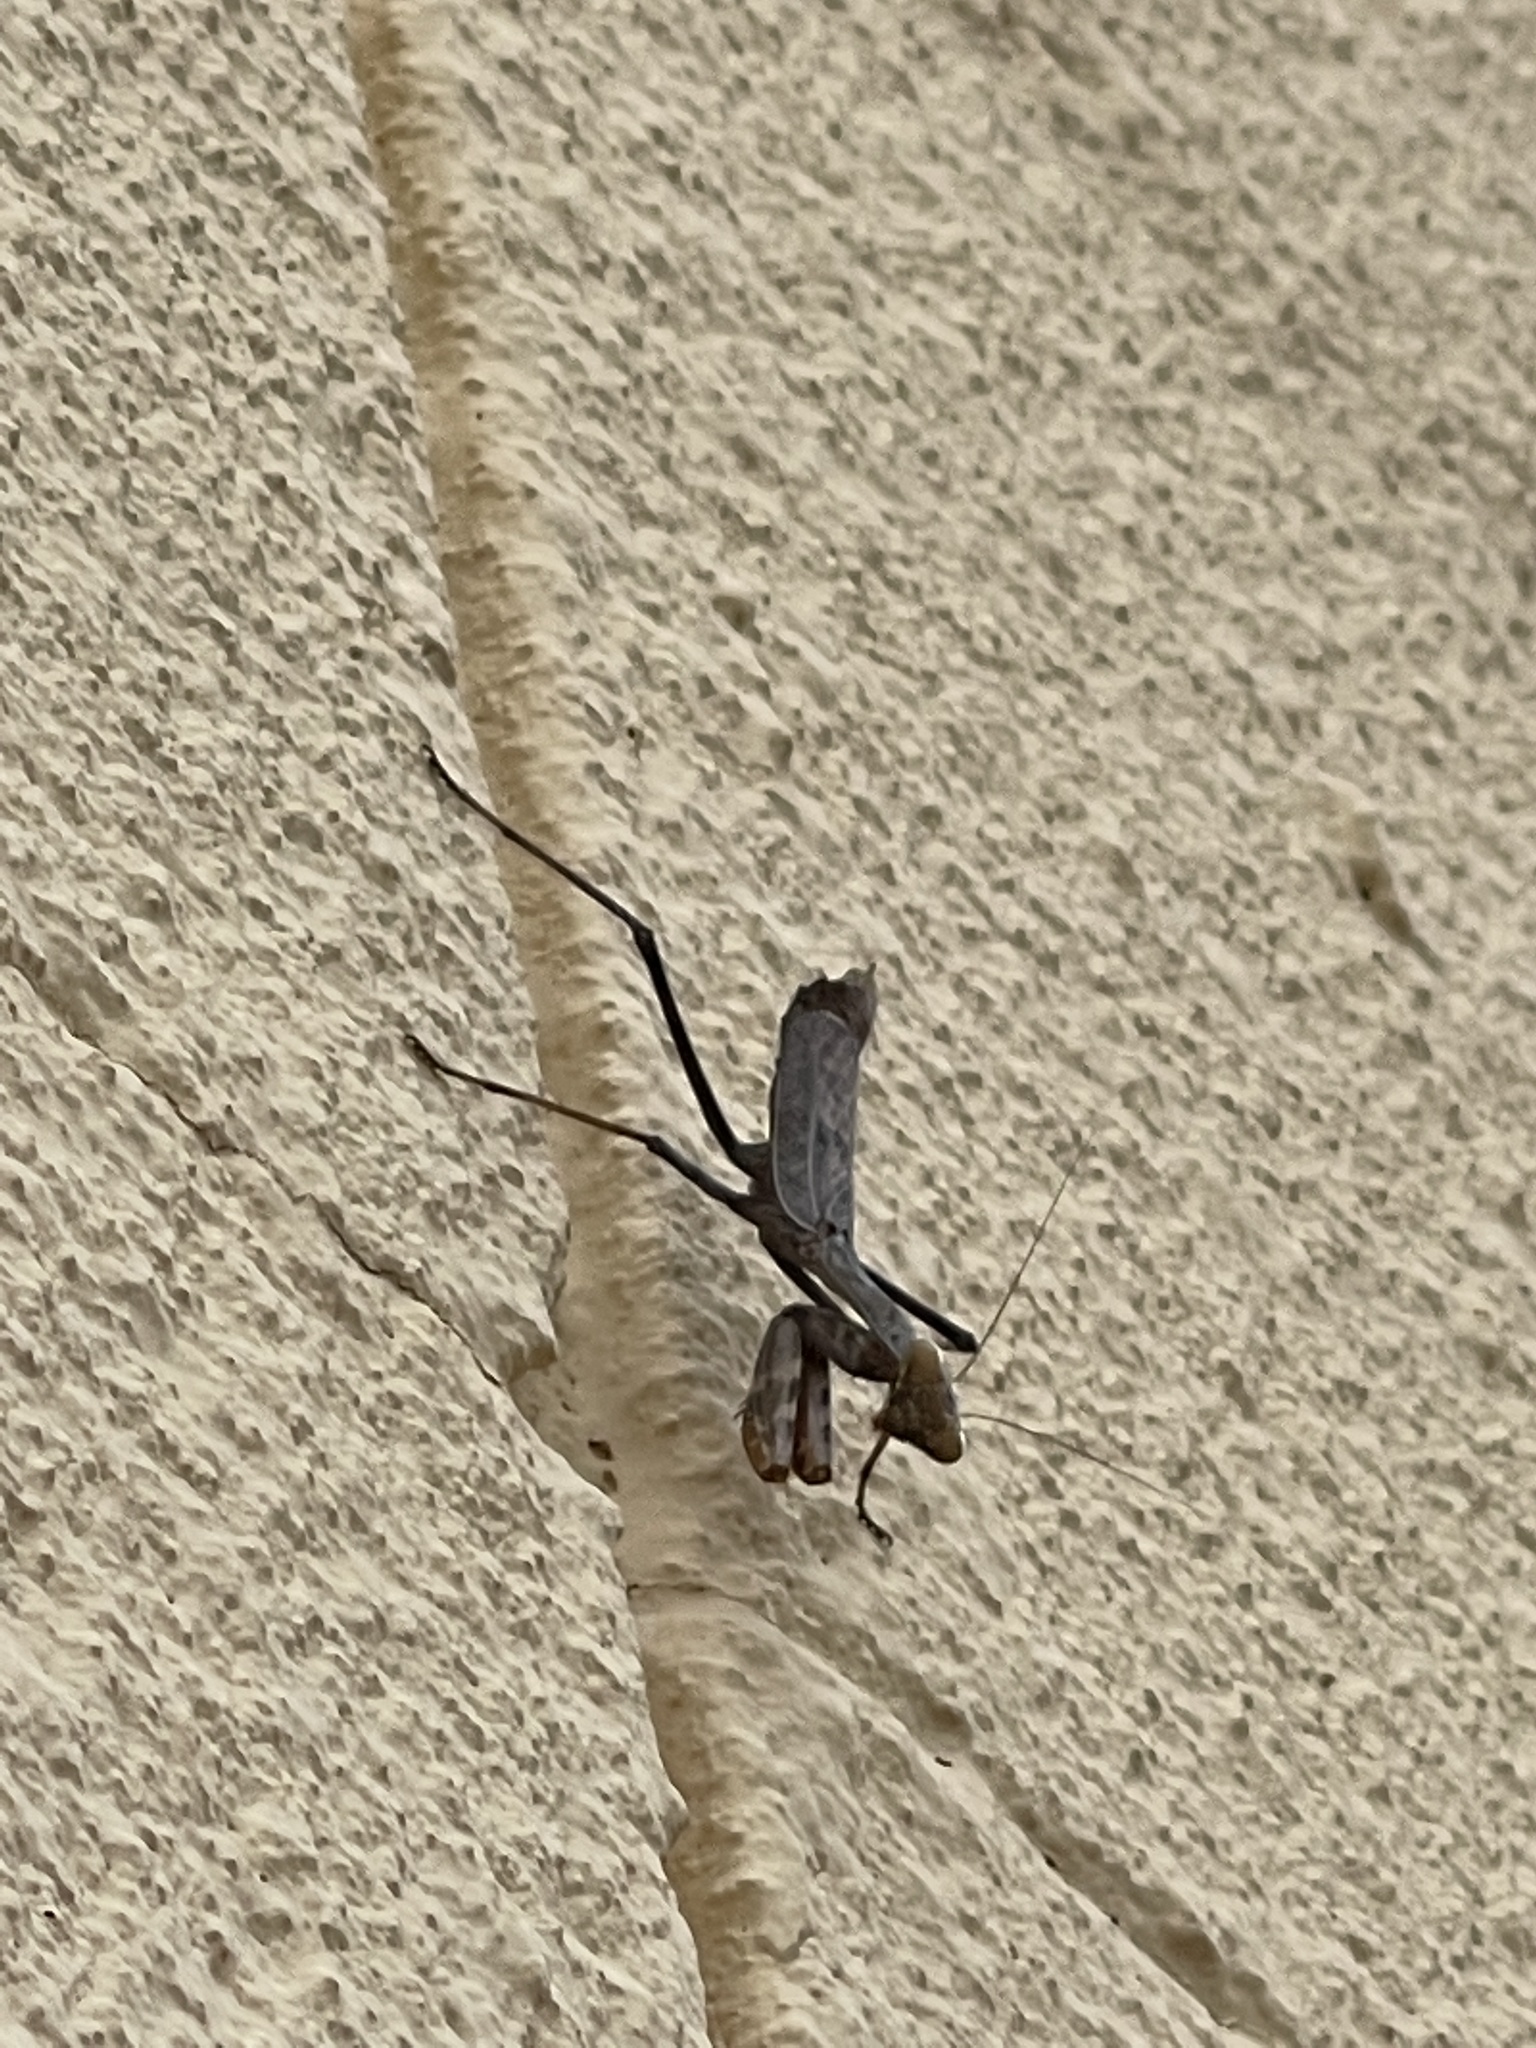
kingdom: Animalia
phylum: Arthropoda
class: Insecta
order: Mantodea
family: Mantidae
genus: Stagmomantis
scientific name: Stagmomantis limbata
